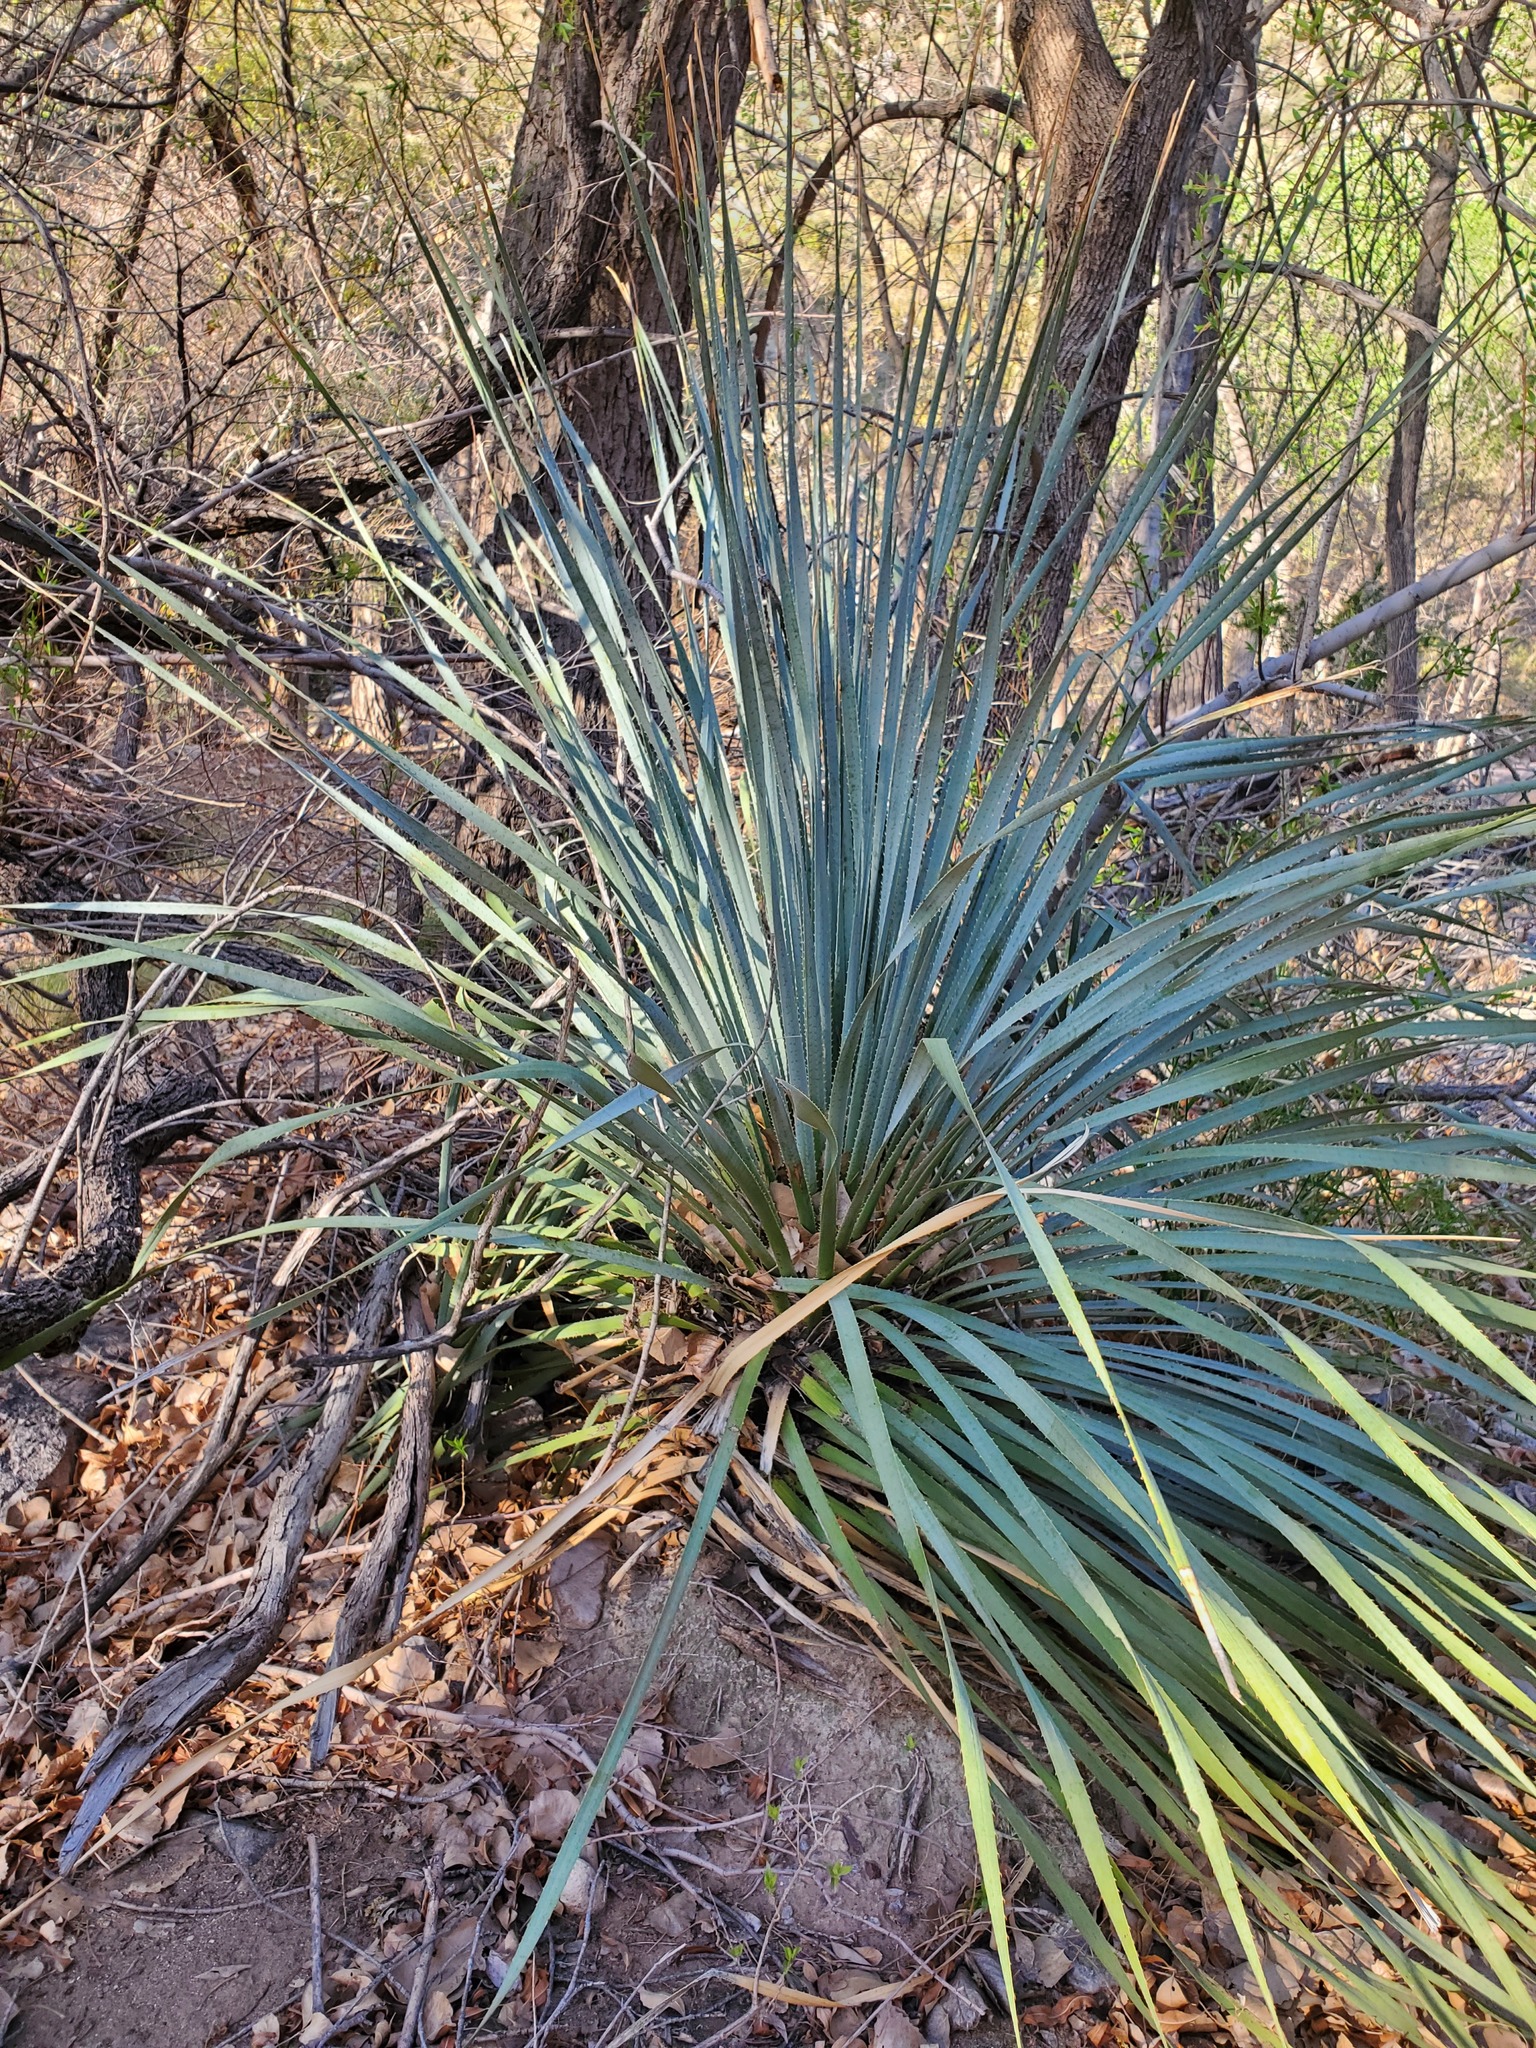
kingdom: Plantae
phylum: Tracheophyta
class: Liliopsida
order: Asparagales
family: Asparagaceae
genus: Dasylirion
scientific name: Dasylirion wheeleri
